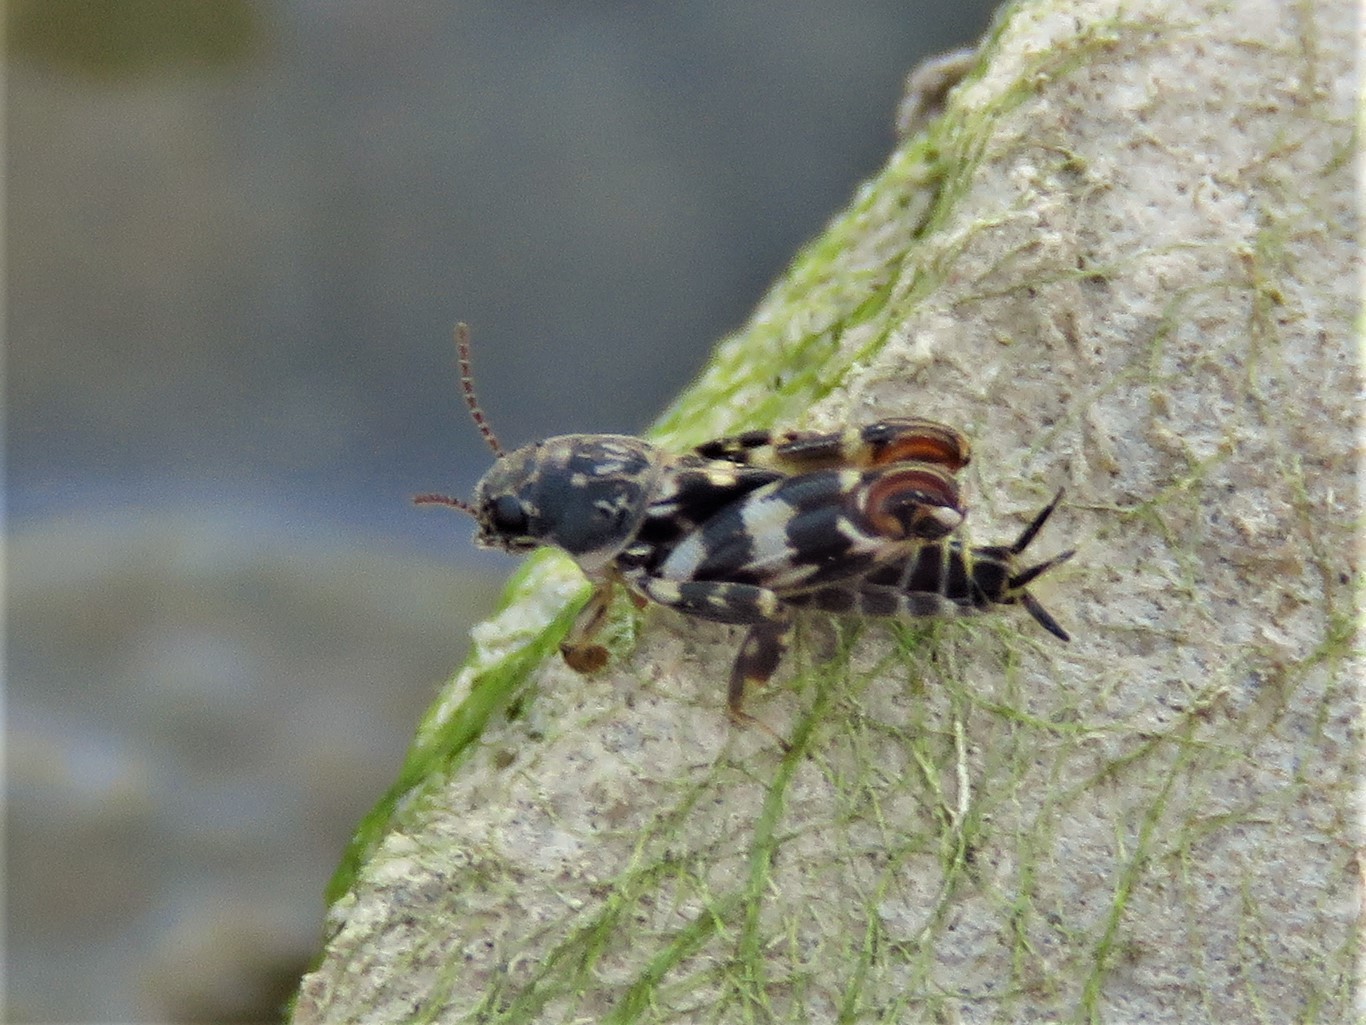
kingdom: Animalia
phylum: Arthropoda
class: Insecta
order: Orthoptera
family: Tridactylidae
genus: Ellipes
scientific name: Ellipes minuta
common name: Minute pygmy locust
